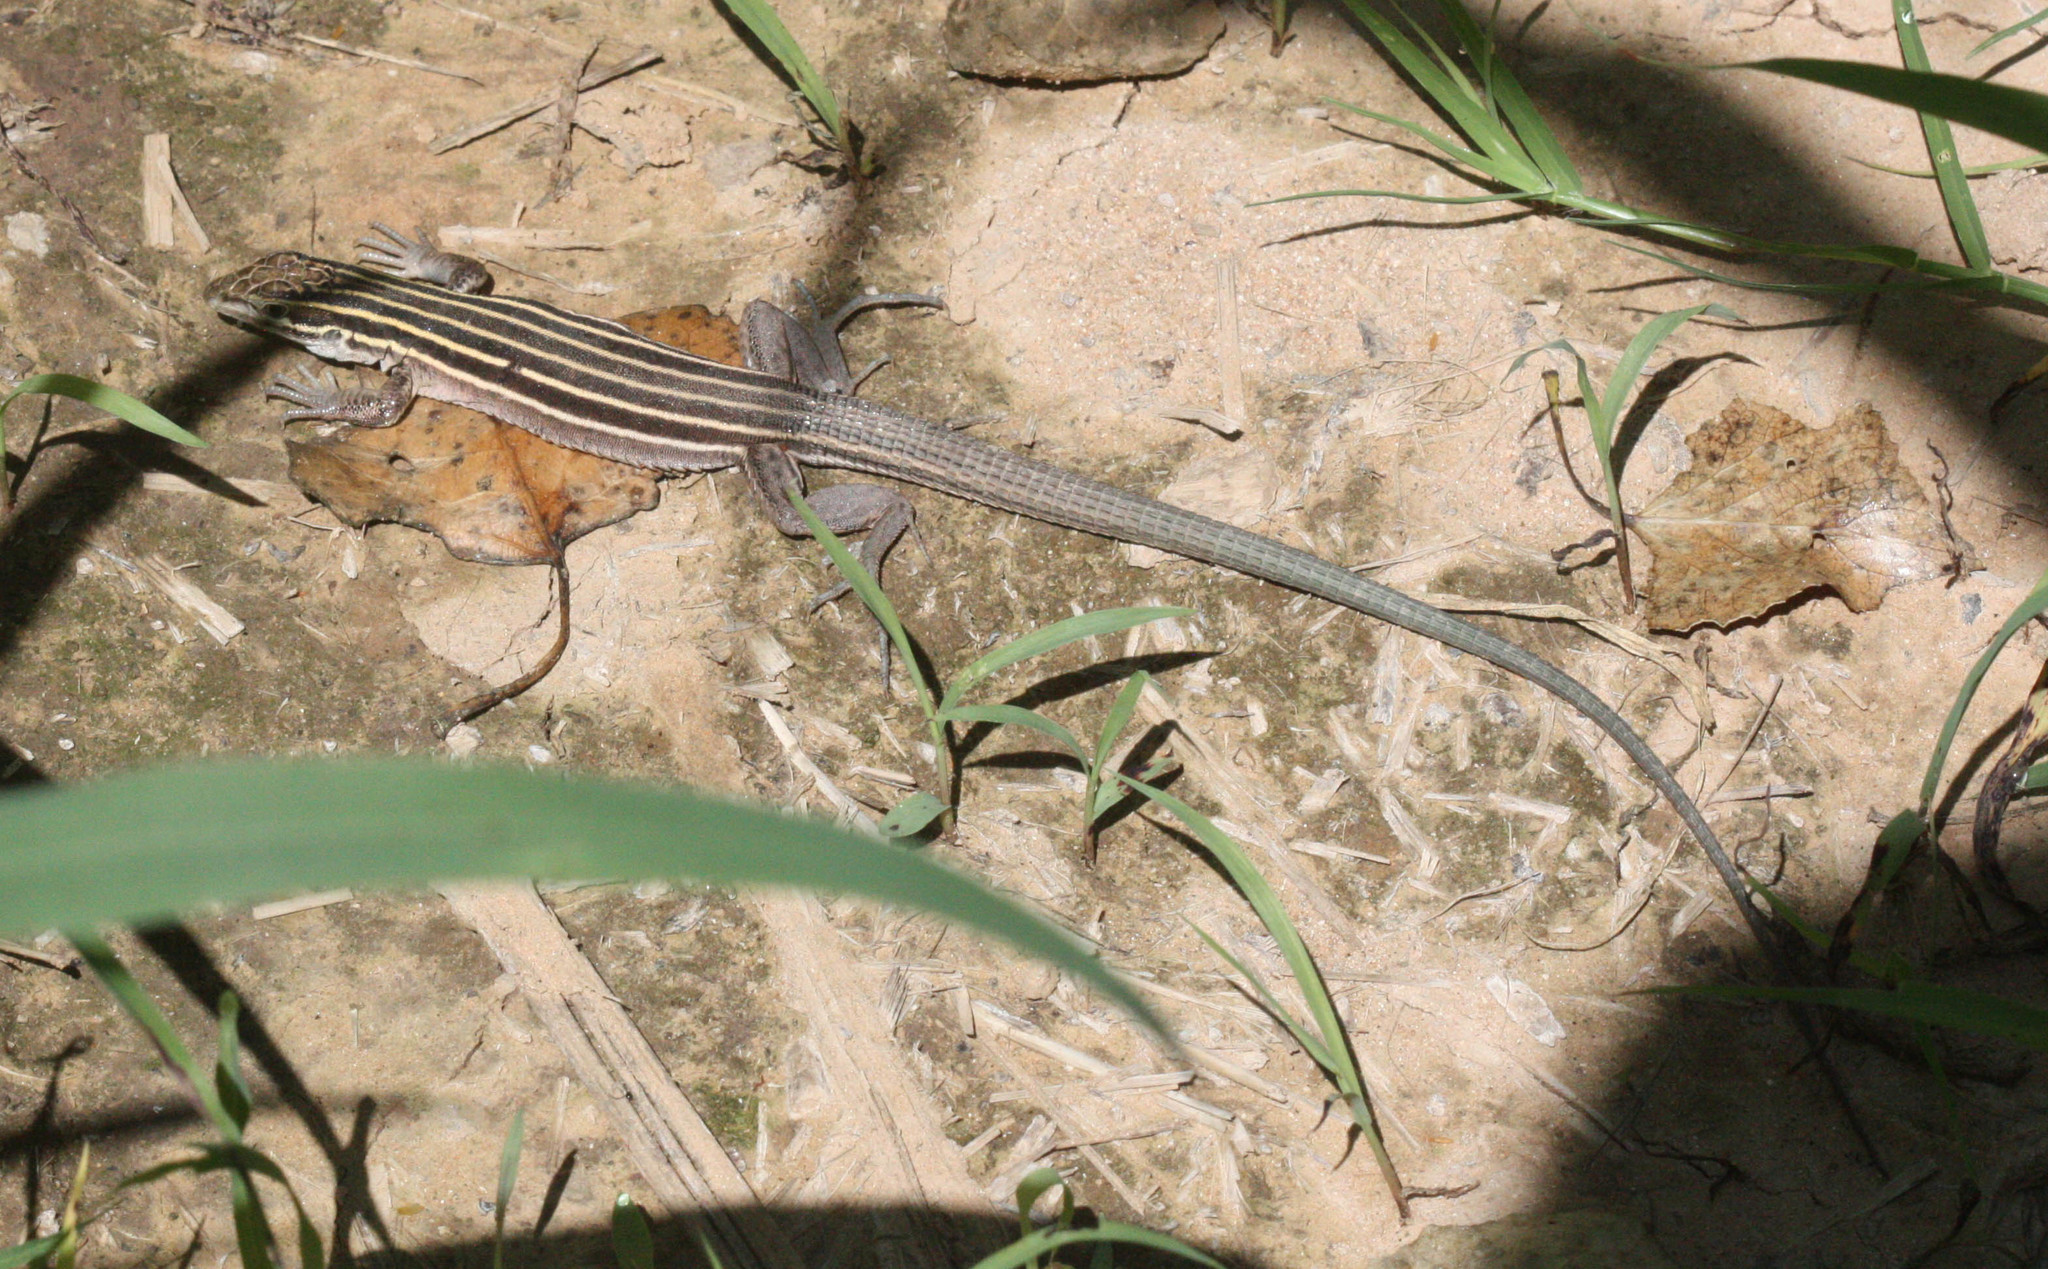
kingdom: Animalia
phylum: Chordata
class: Squamata
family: Teiidae
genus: Aspidoscelis
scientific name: Aspidoscelis uniparens
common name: Desert grassland whiptail
